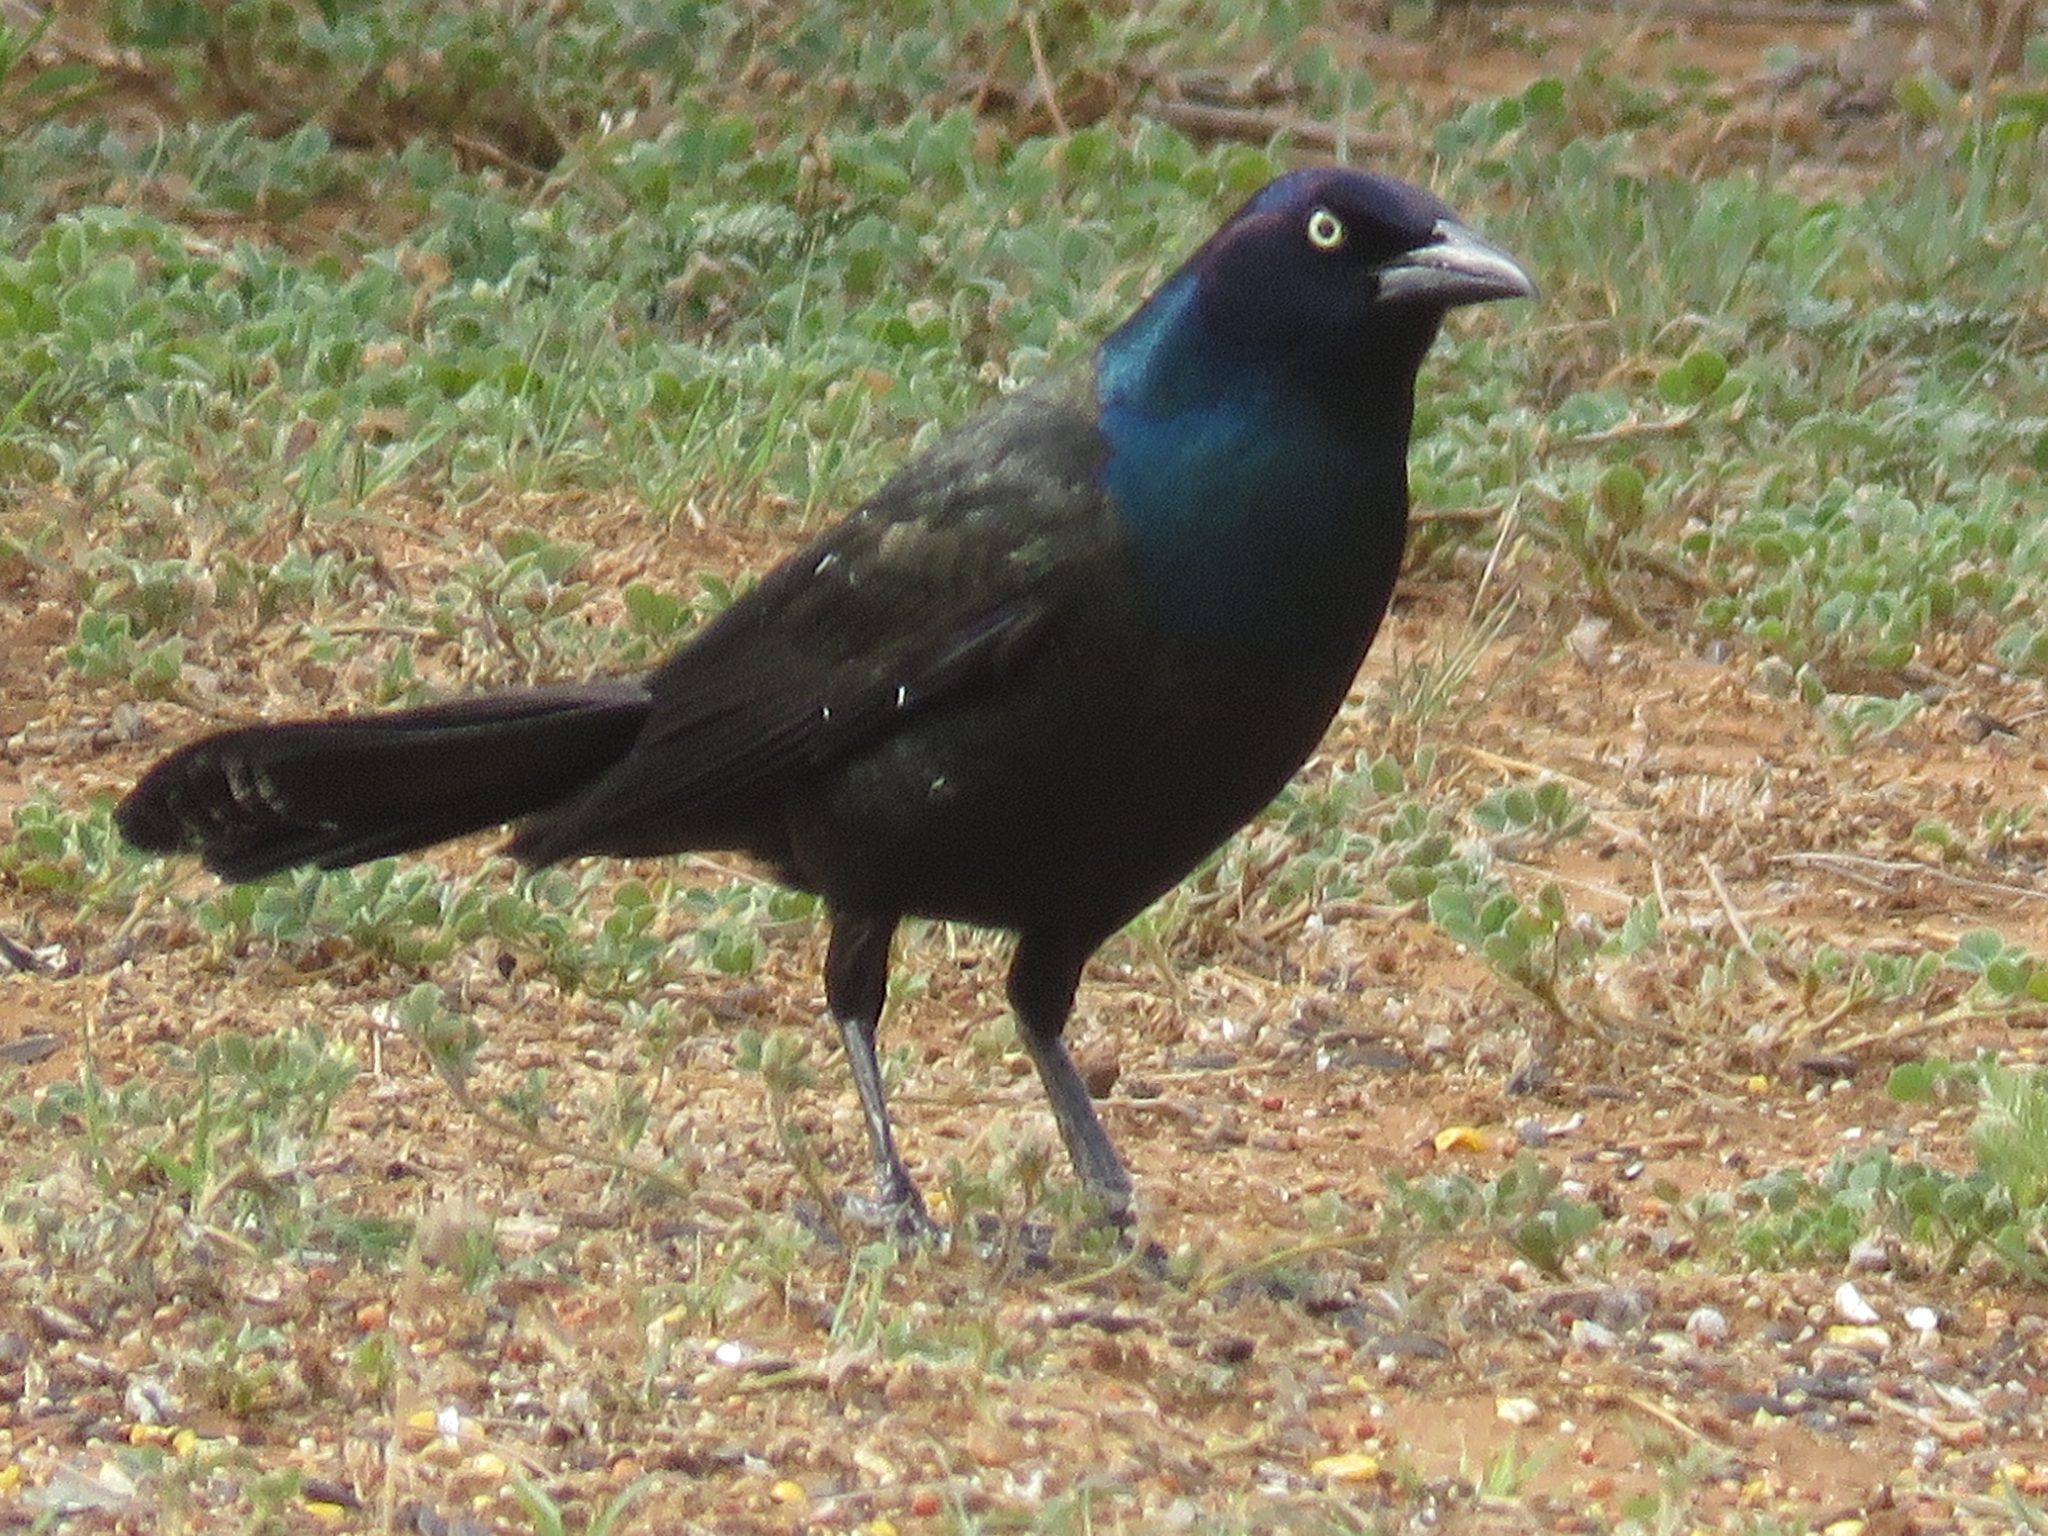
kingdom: Animalia
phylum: Chordata
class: Aves
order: Passeriformes
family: Icteridae
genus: Quiscalus
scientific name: Quiscalus quiscula
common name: Common grackle
